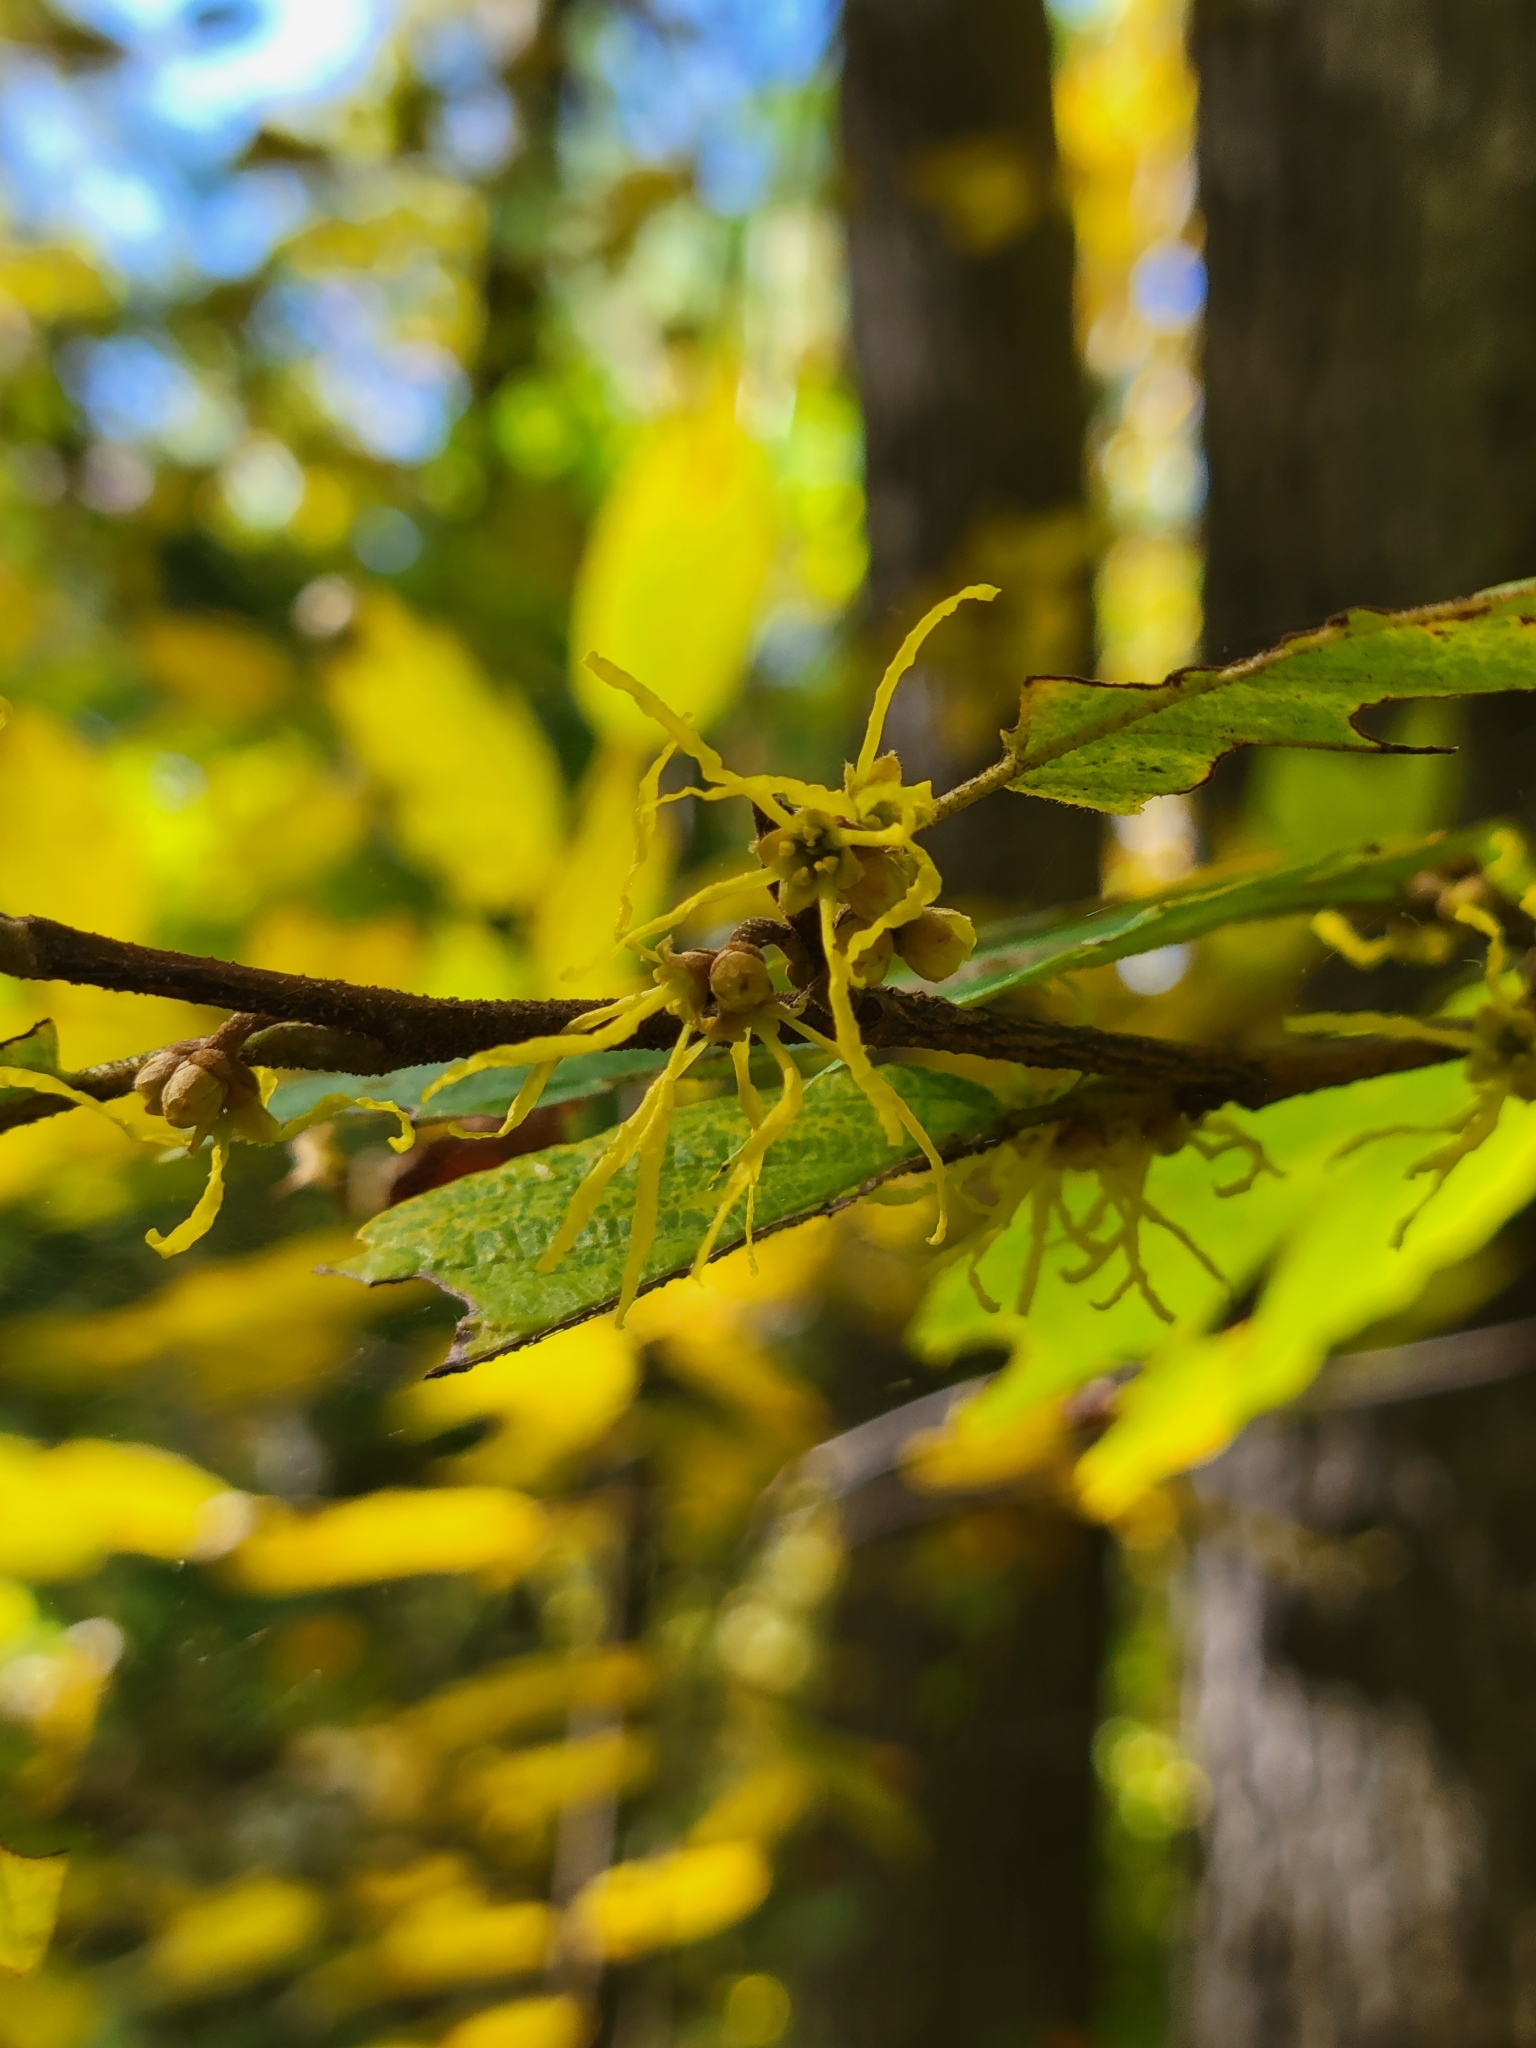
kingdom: Plantae
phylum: Tracheophyta
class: Magnoliopsida
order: Saxifragales
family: Hamamelidaceae
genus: Hamamelis
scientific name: Hamamelis virginiana
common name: Witch-hazel
